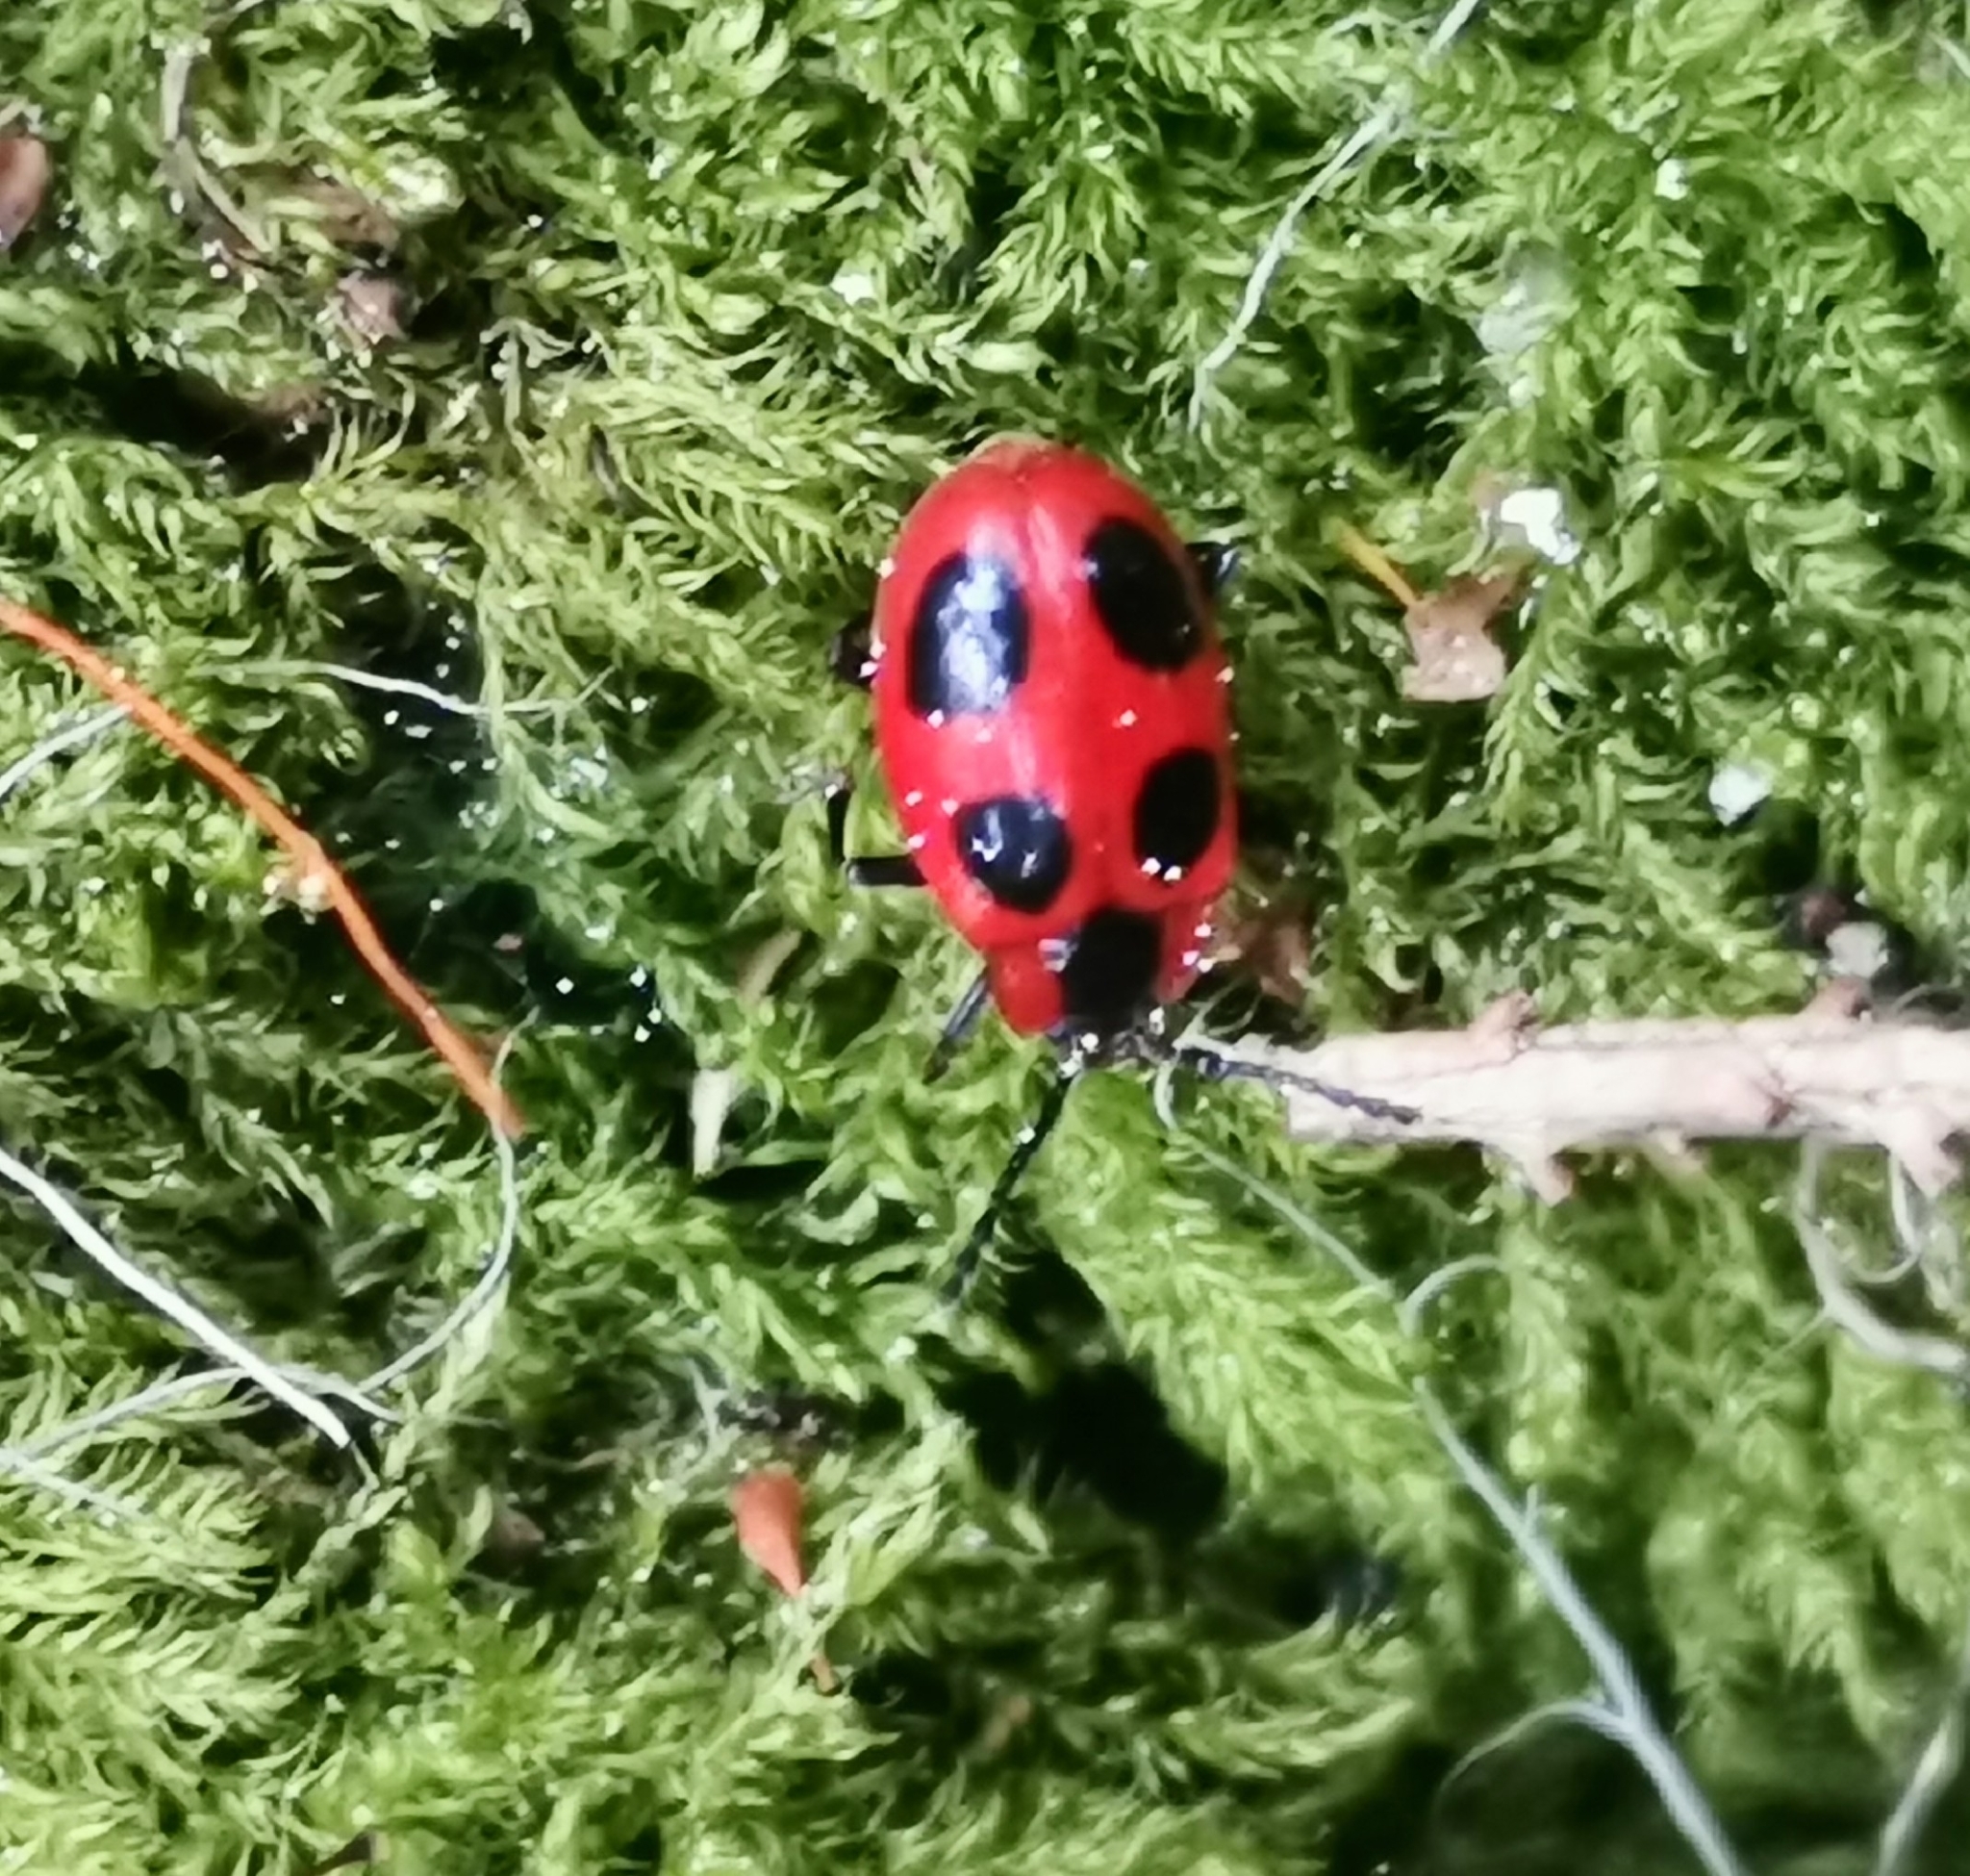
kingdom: Animalia
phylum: Arthropoda
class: Insecta
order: Coleoptera
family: Endomychidae
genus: Endomychus
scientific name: Endomychus coccineus
